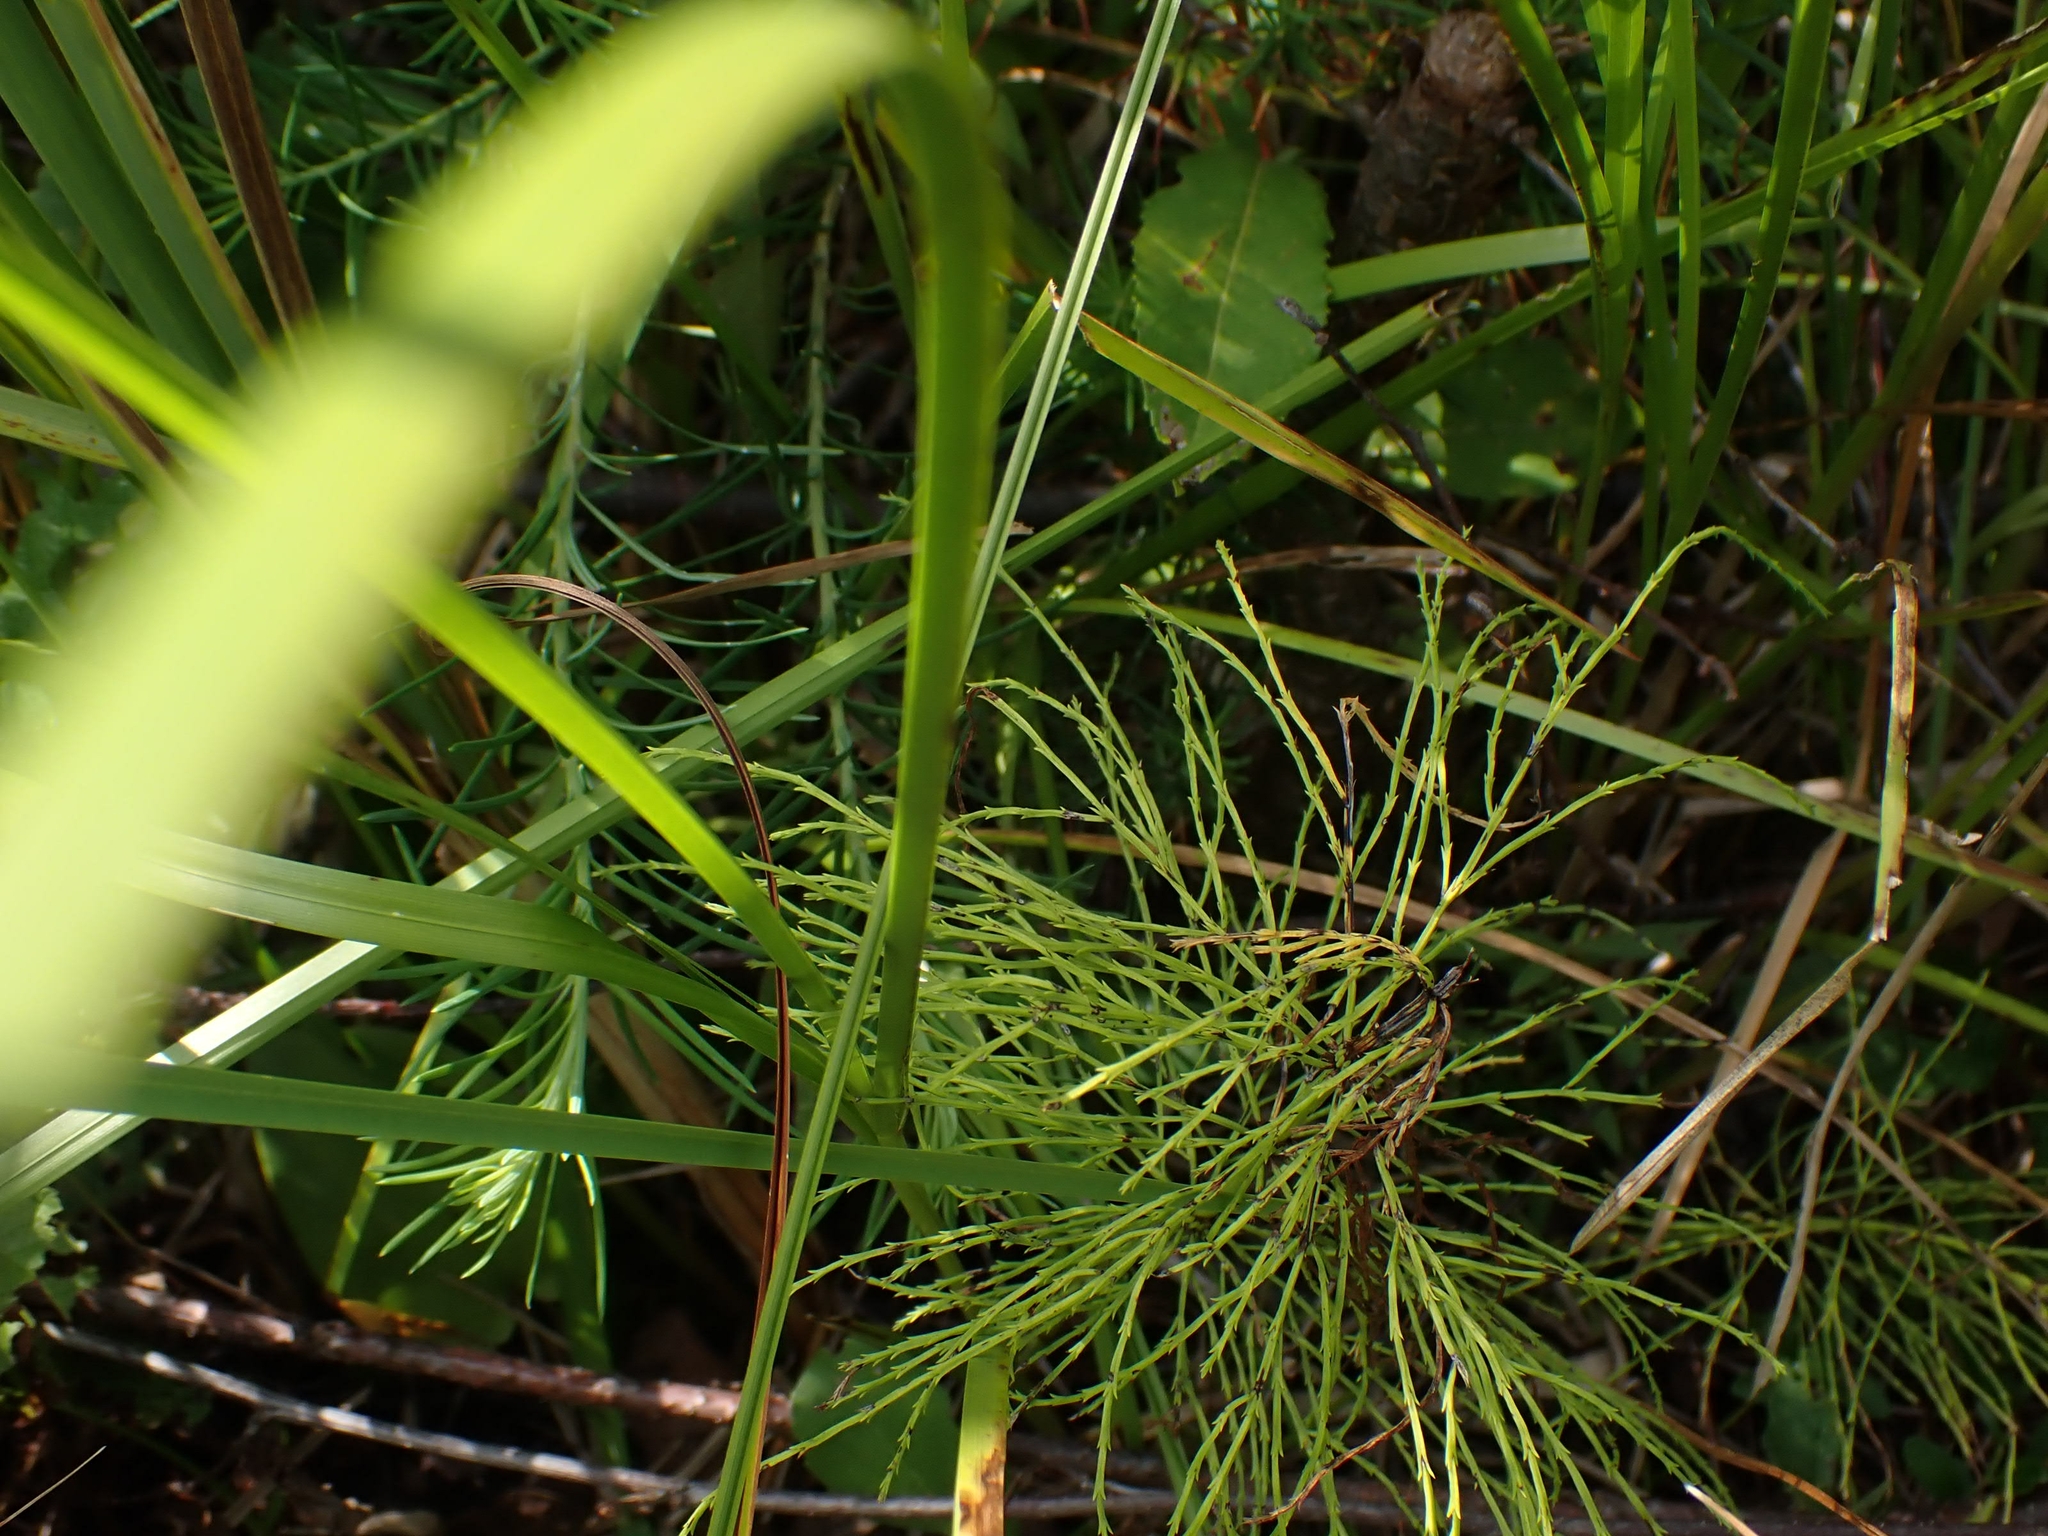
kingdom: Plantae
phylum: Tracheophyta
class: Polypodiopsida
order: Equisetales
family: Equisetaceae
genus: Equisetum
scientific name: Equisetum sylvaticum
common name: Wood horsetail
